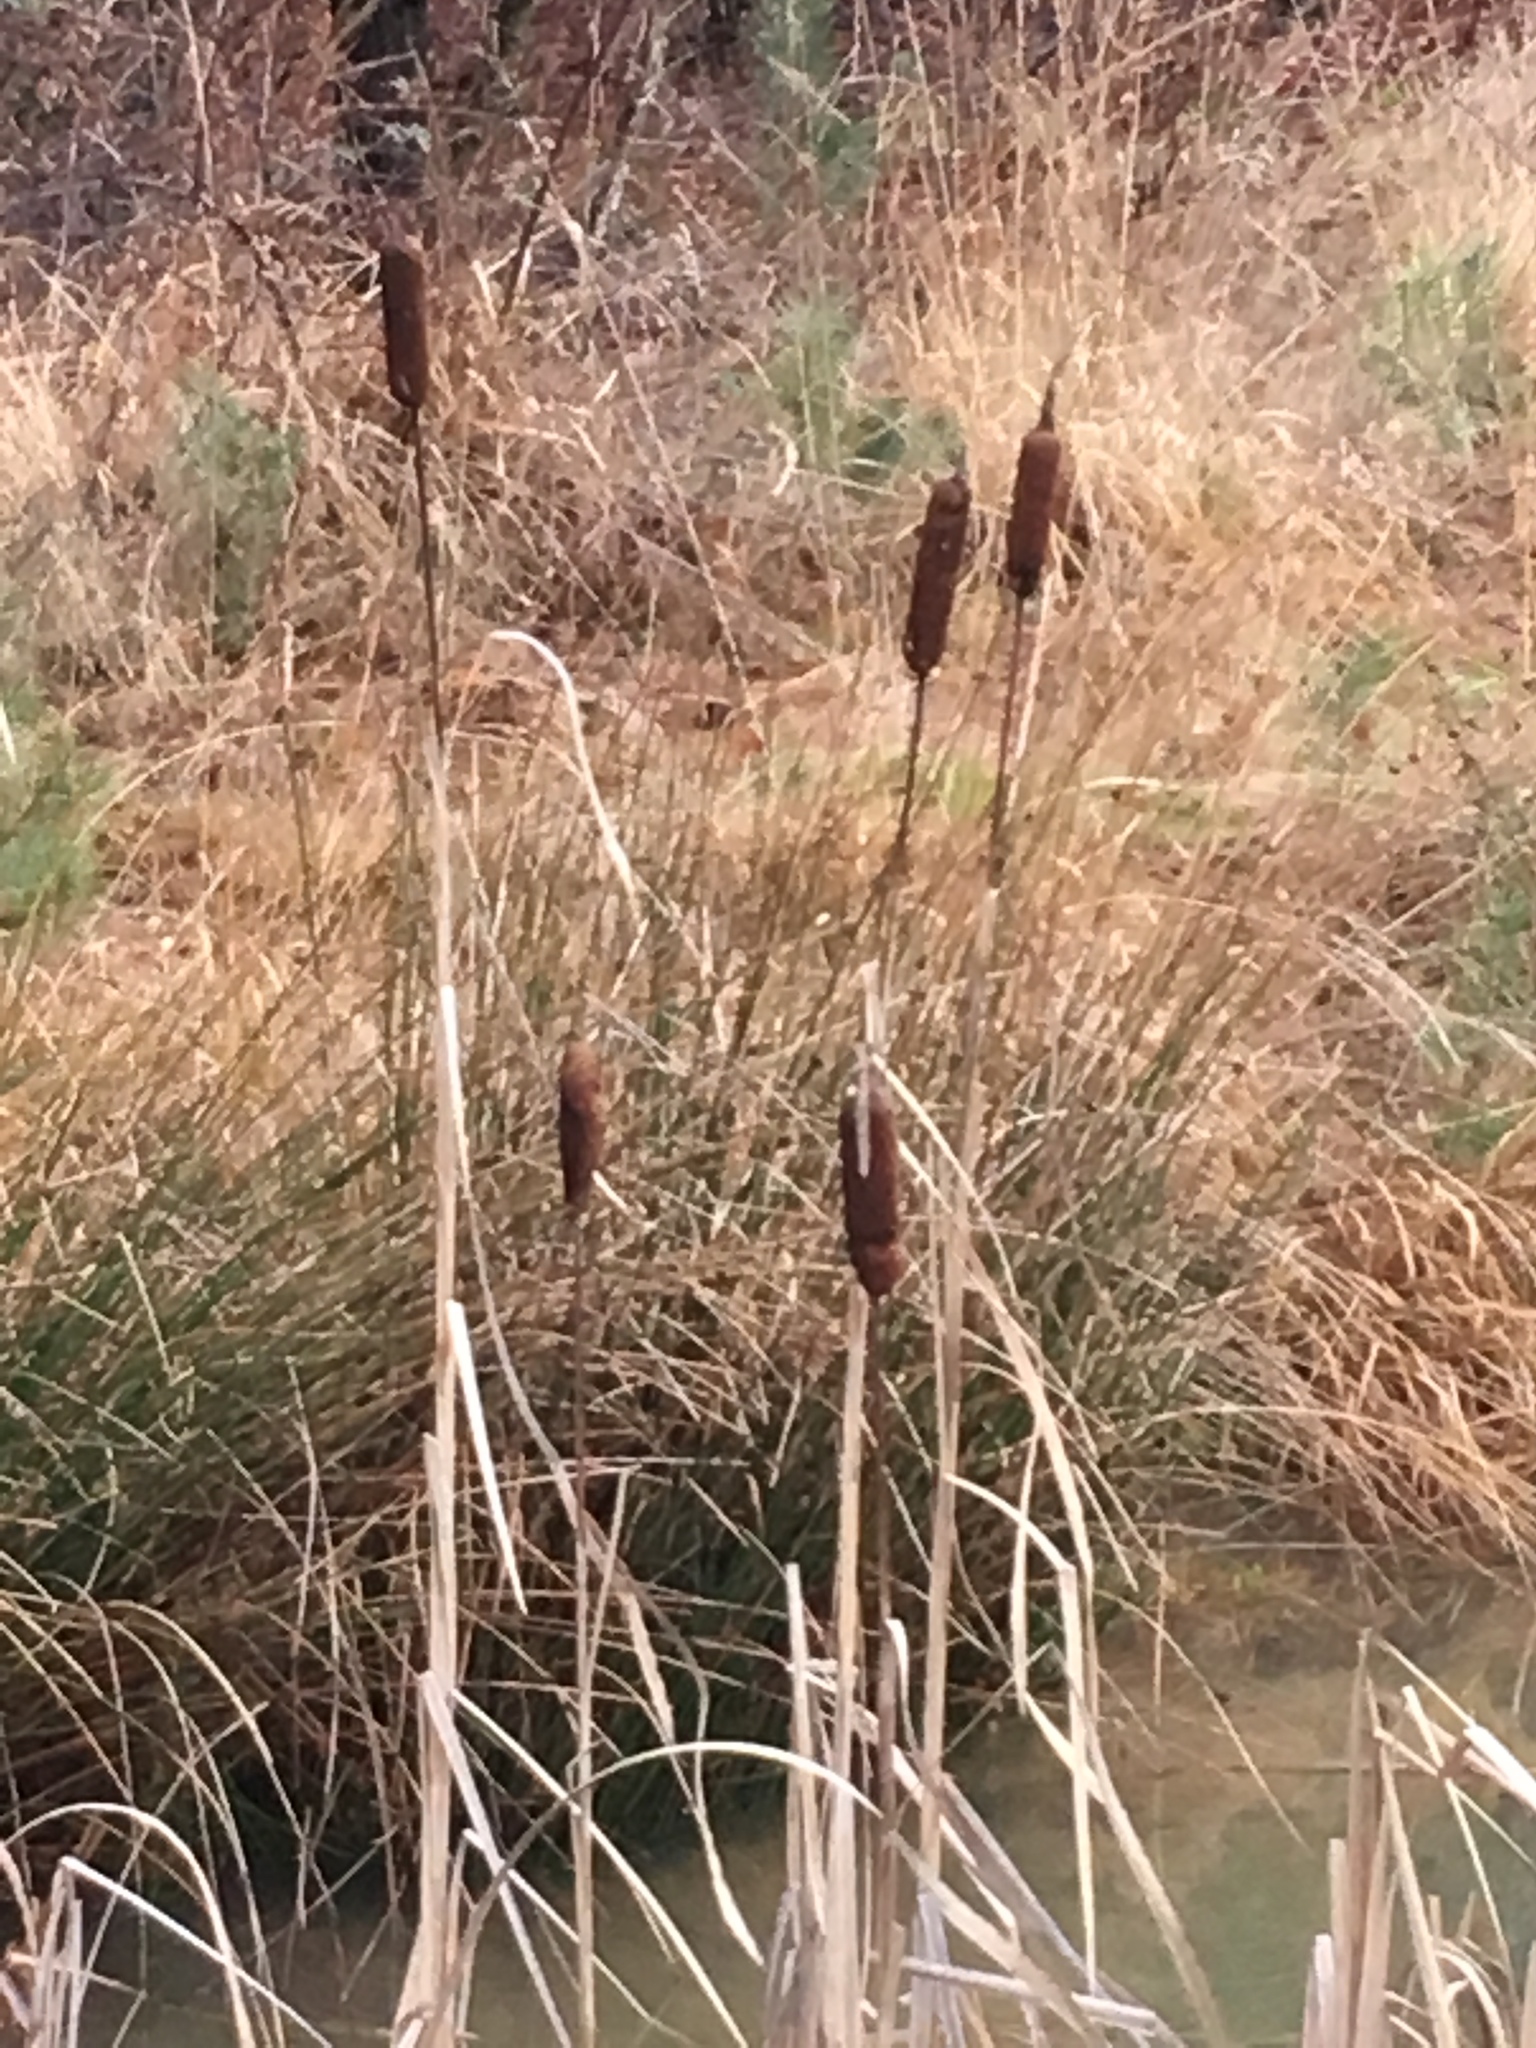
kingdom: Plantae
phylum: Tracheophyta
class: Liliopsida
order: Poales
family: Typhaceae
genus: Typha
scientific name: Typha latifolia
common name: Broadleaf cattail
